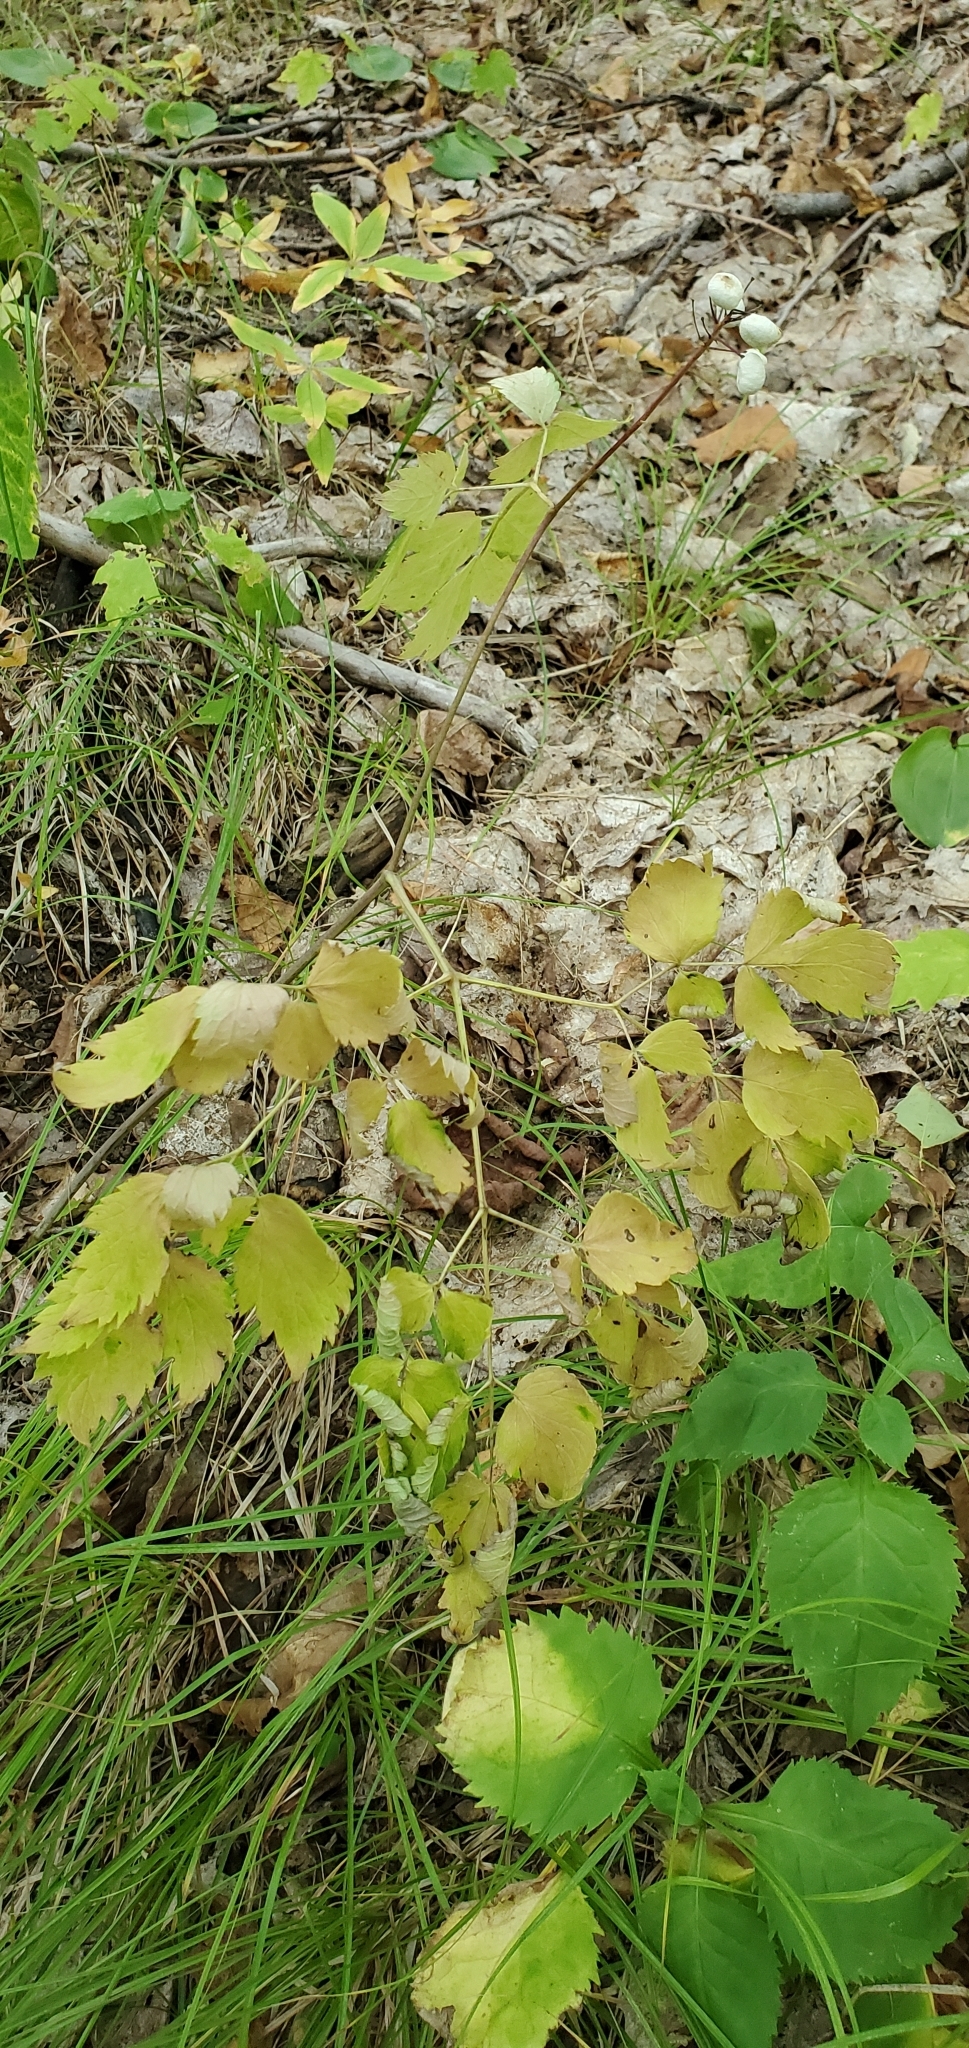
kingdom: Plantae
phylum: Tracheophyta
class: Magnoliopsida
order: Ranunculales
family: Ranunculaceae
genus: Actaea
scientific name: Actaea rubra
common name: Red baneberry
